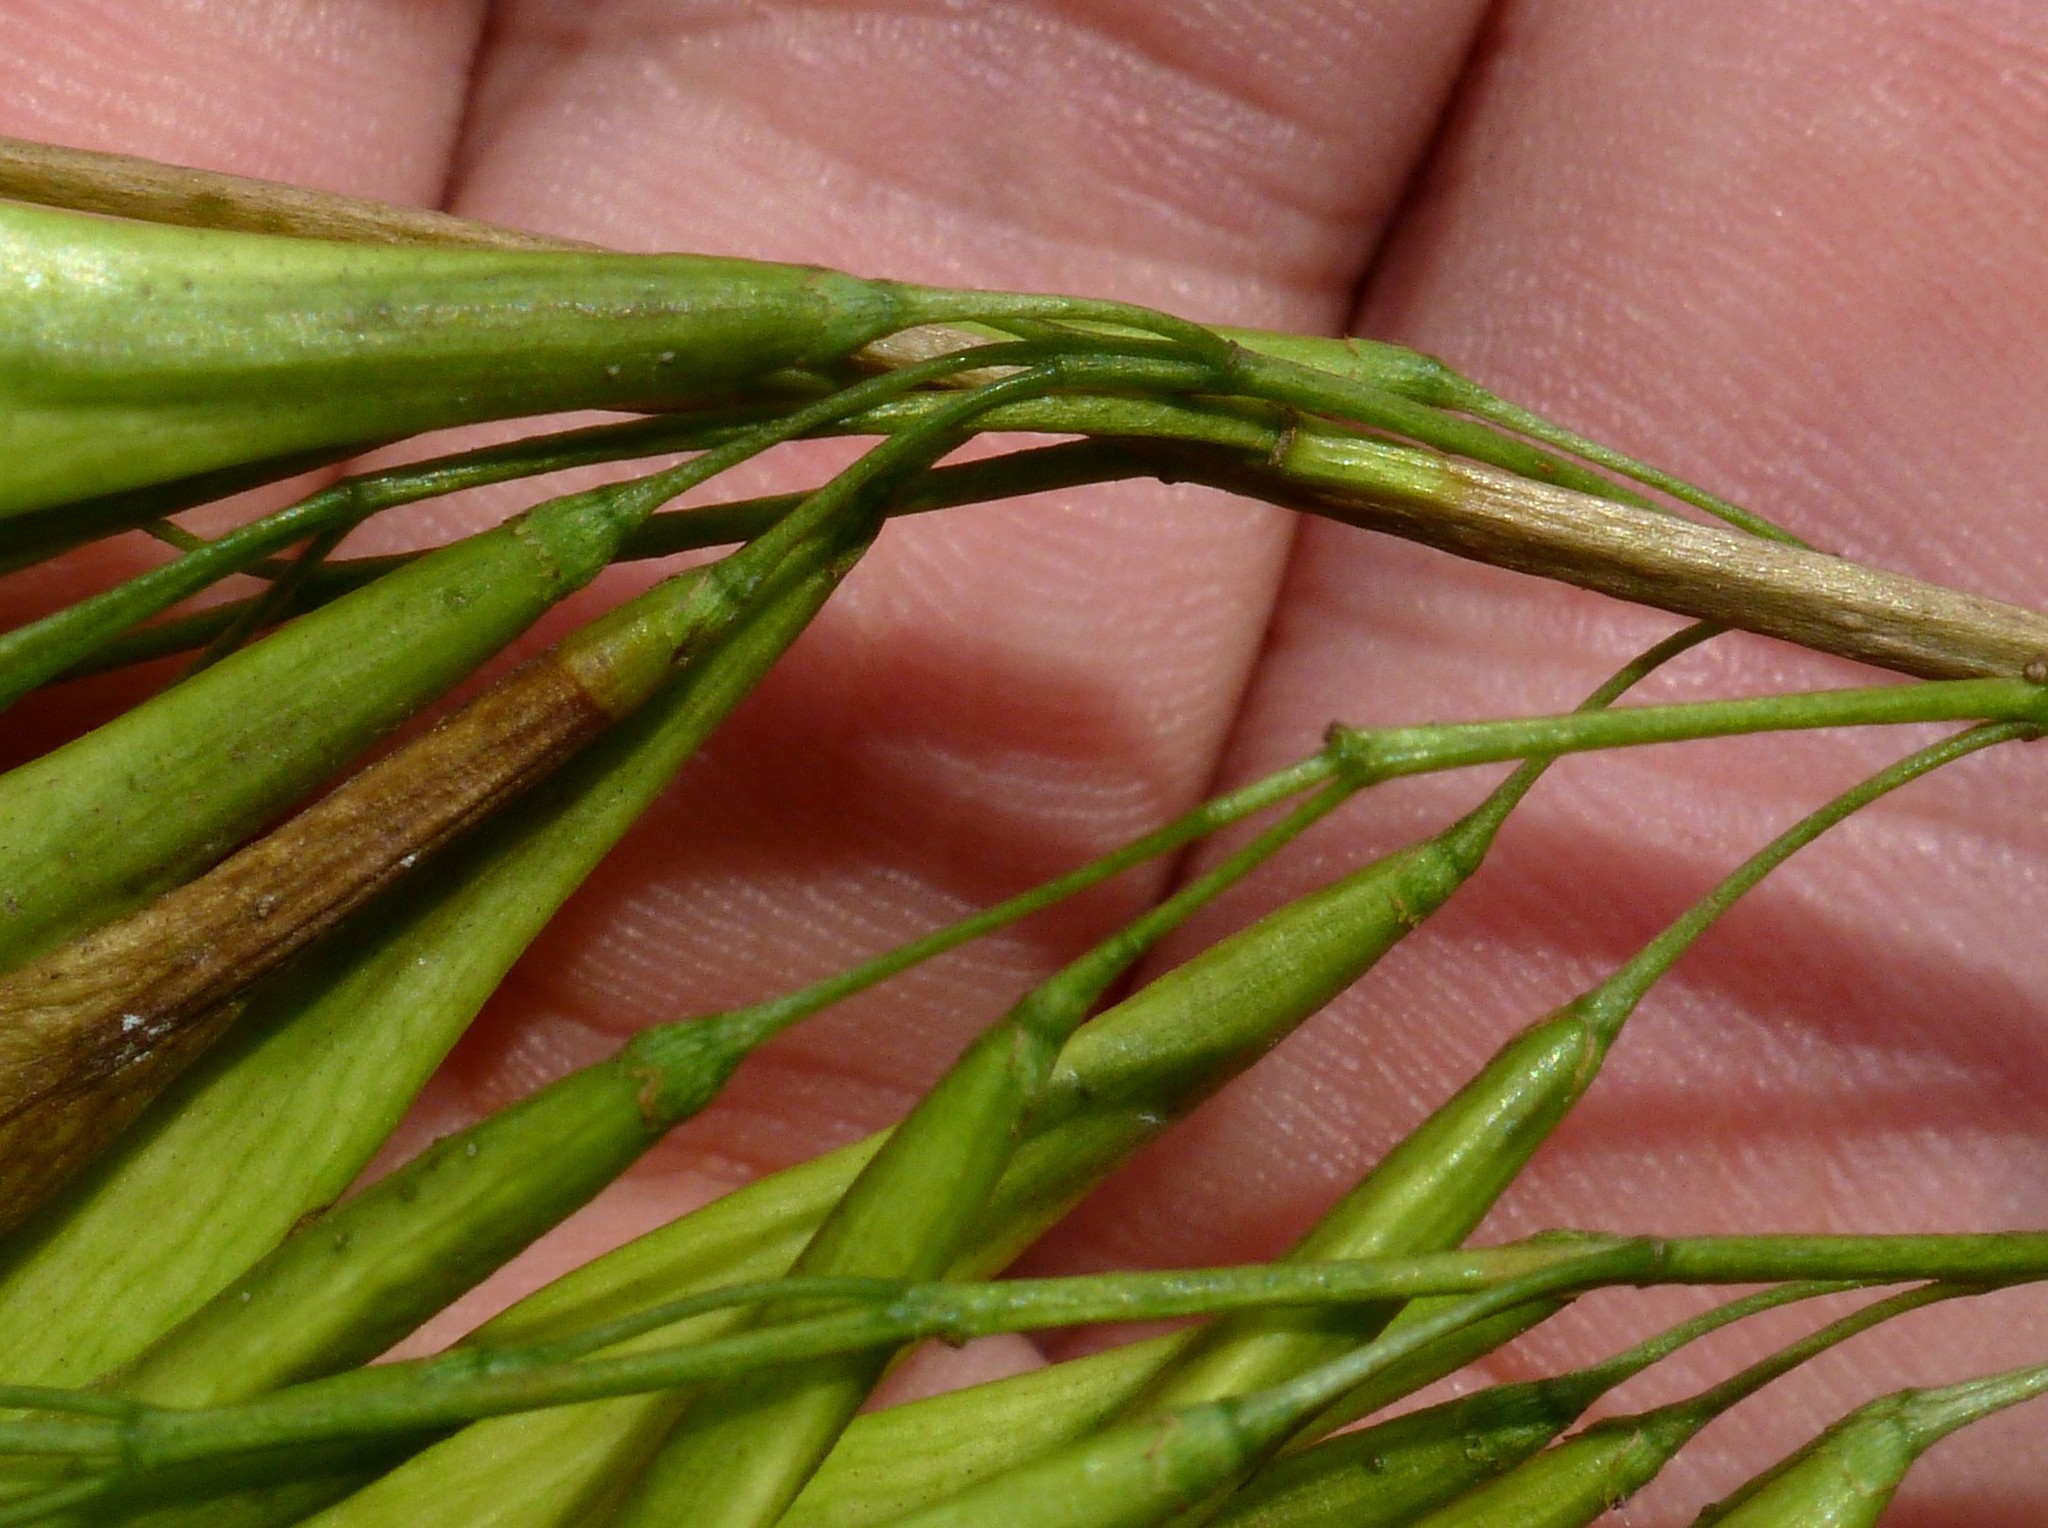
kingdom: Plantae
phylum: Tracheophyta
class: Magnoliopsida
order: Lamiales
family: Oleaceae
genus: Fraxinus
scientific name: Fraxinus pennsylvanica
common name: Green ash
